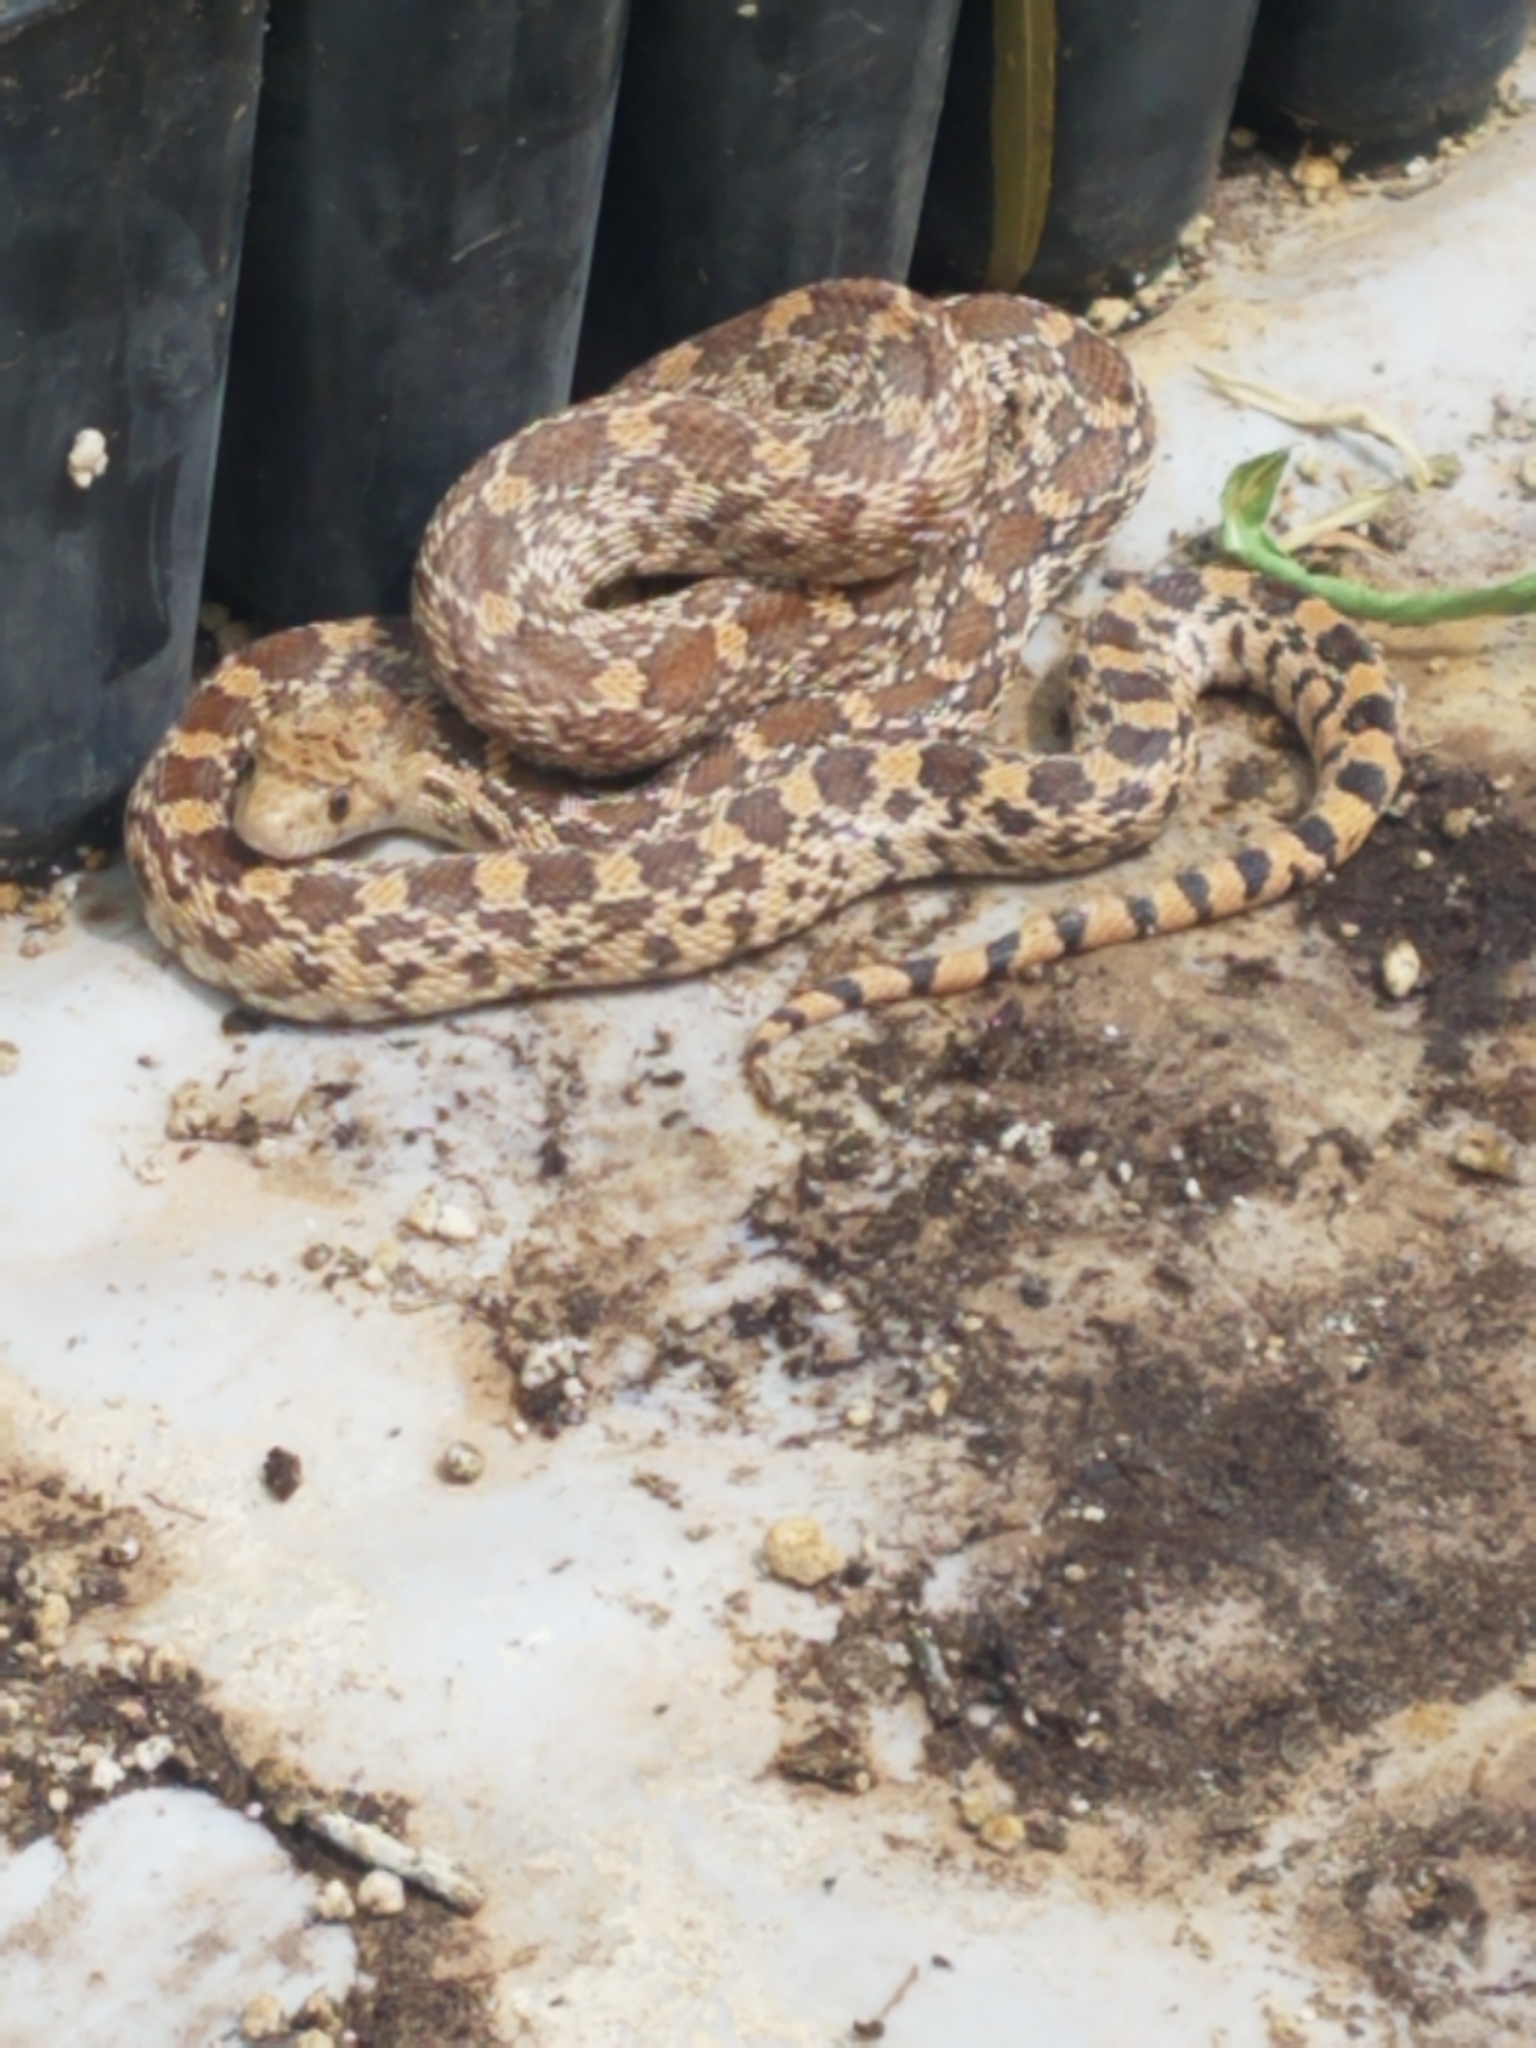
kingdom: Animalia
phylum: Chordata
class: Squamata
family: Colubridae
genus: Pituophis
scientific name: Pituophis catenifer
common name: Gopher snake
